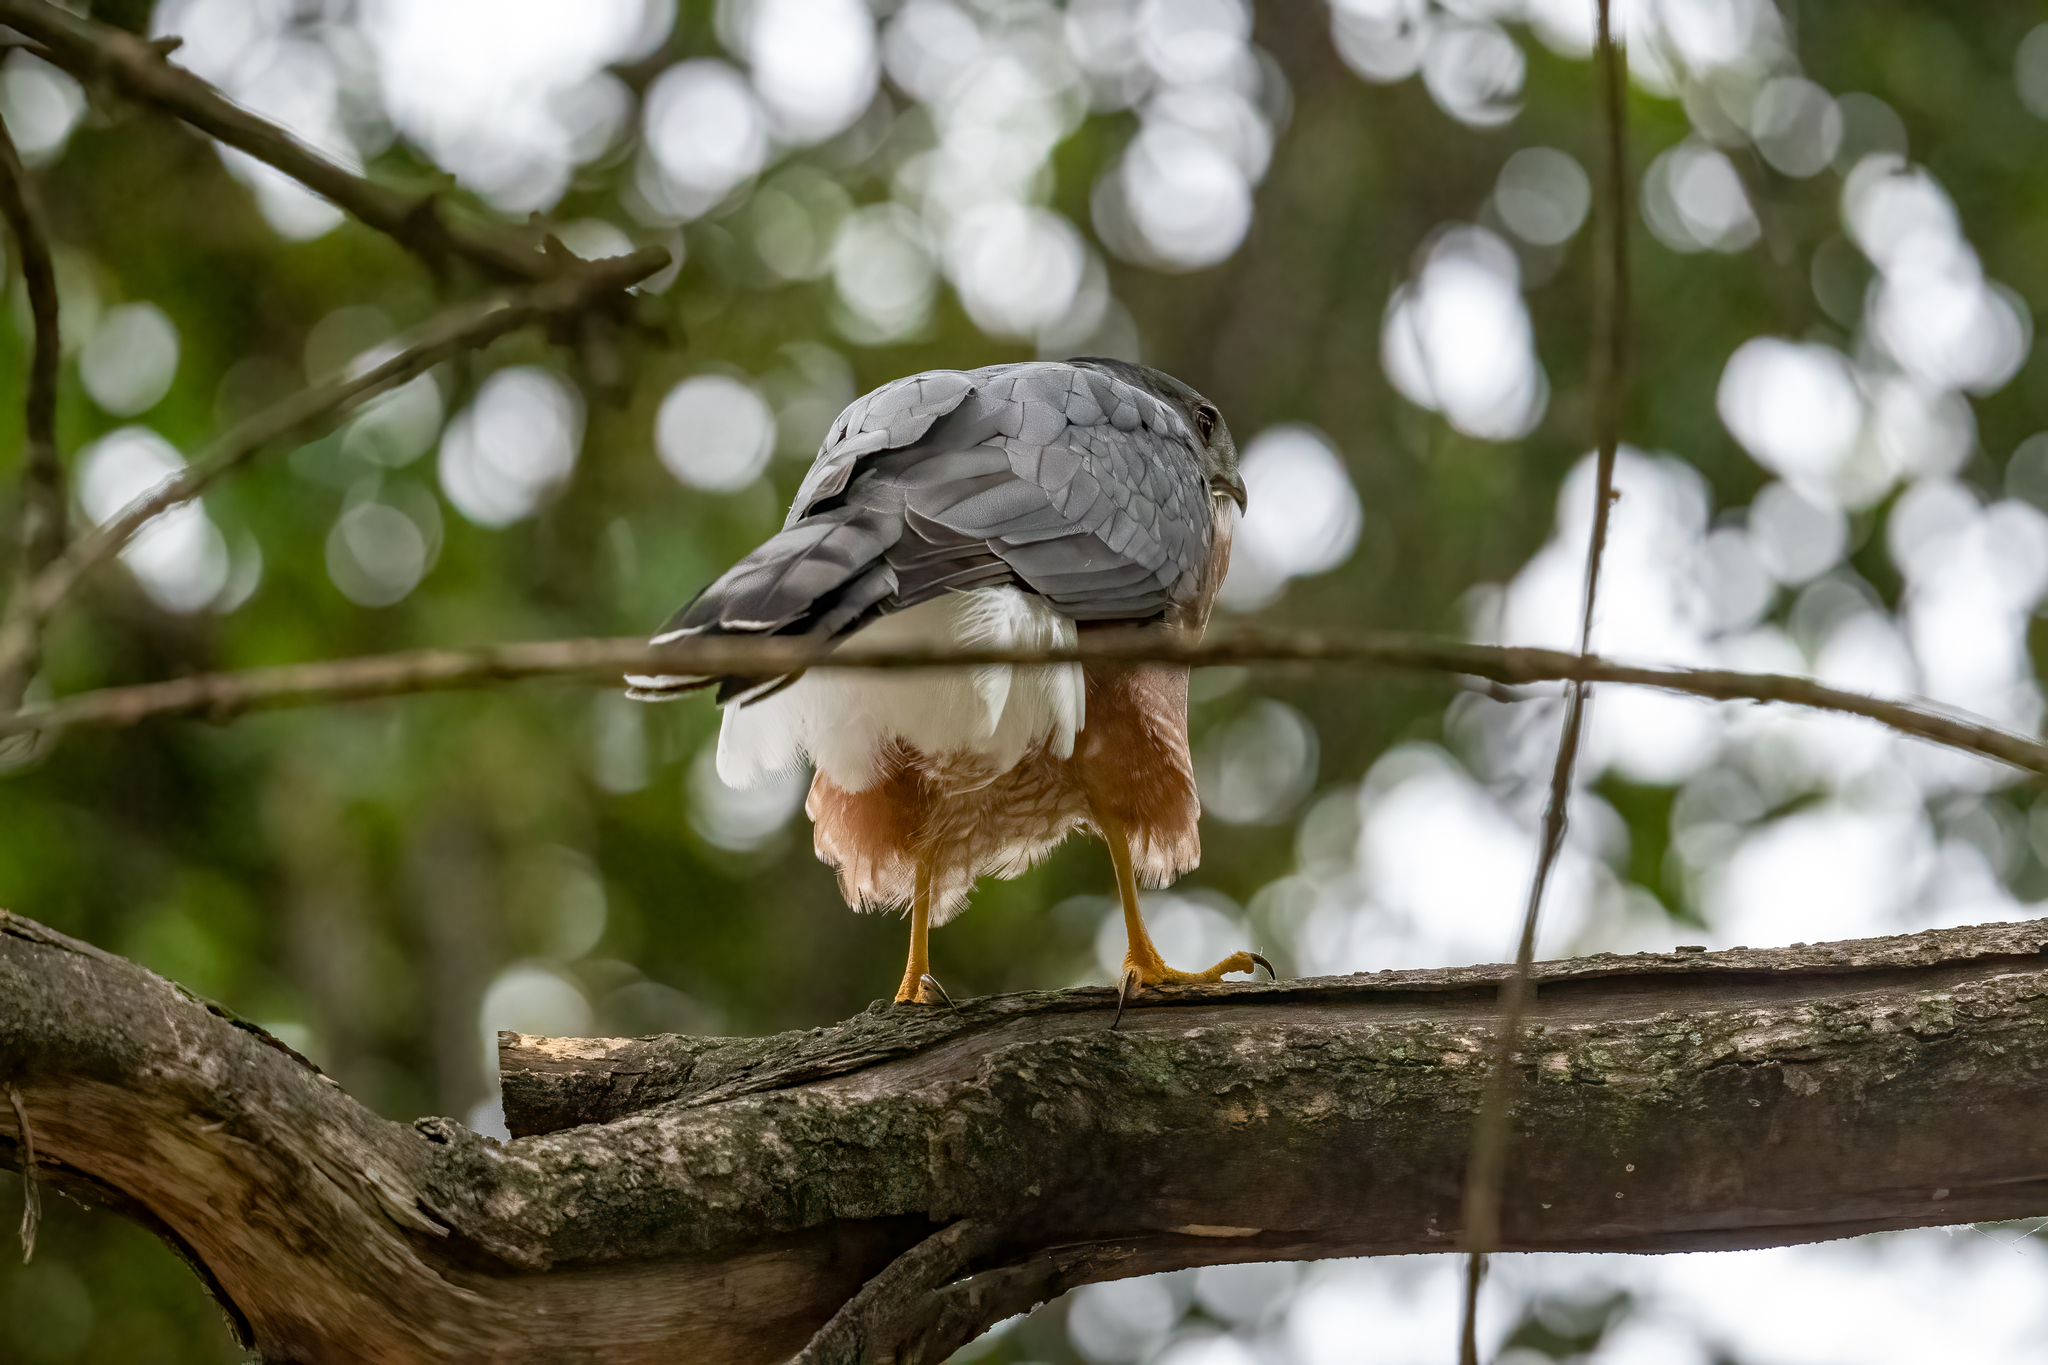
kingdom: Animalia
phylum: Chordata
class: Aves
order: Accipitriformes
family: Accipitridae
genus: Accipiter
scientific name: Accipiter cooperii
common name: Cooper's hawk
